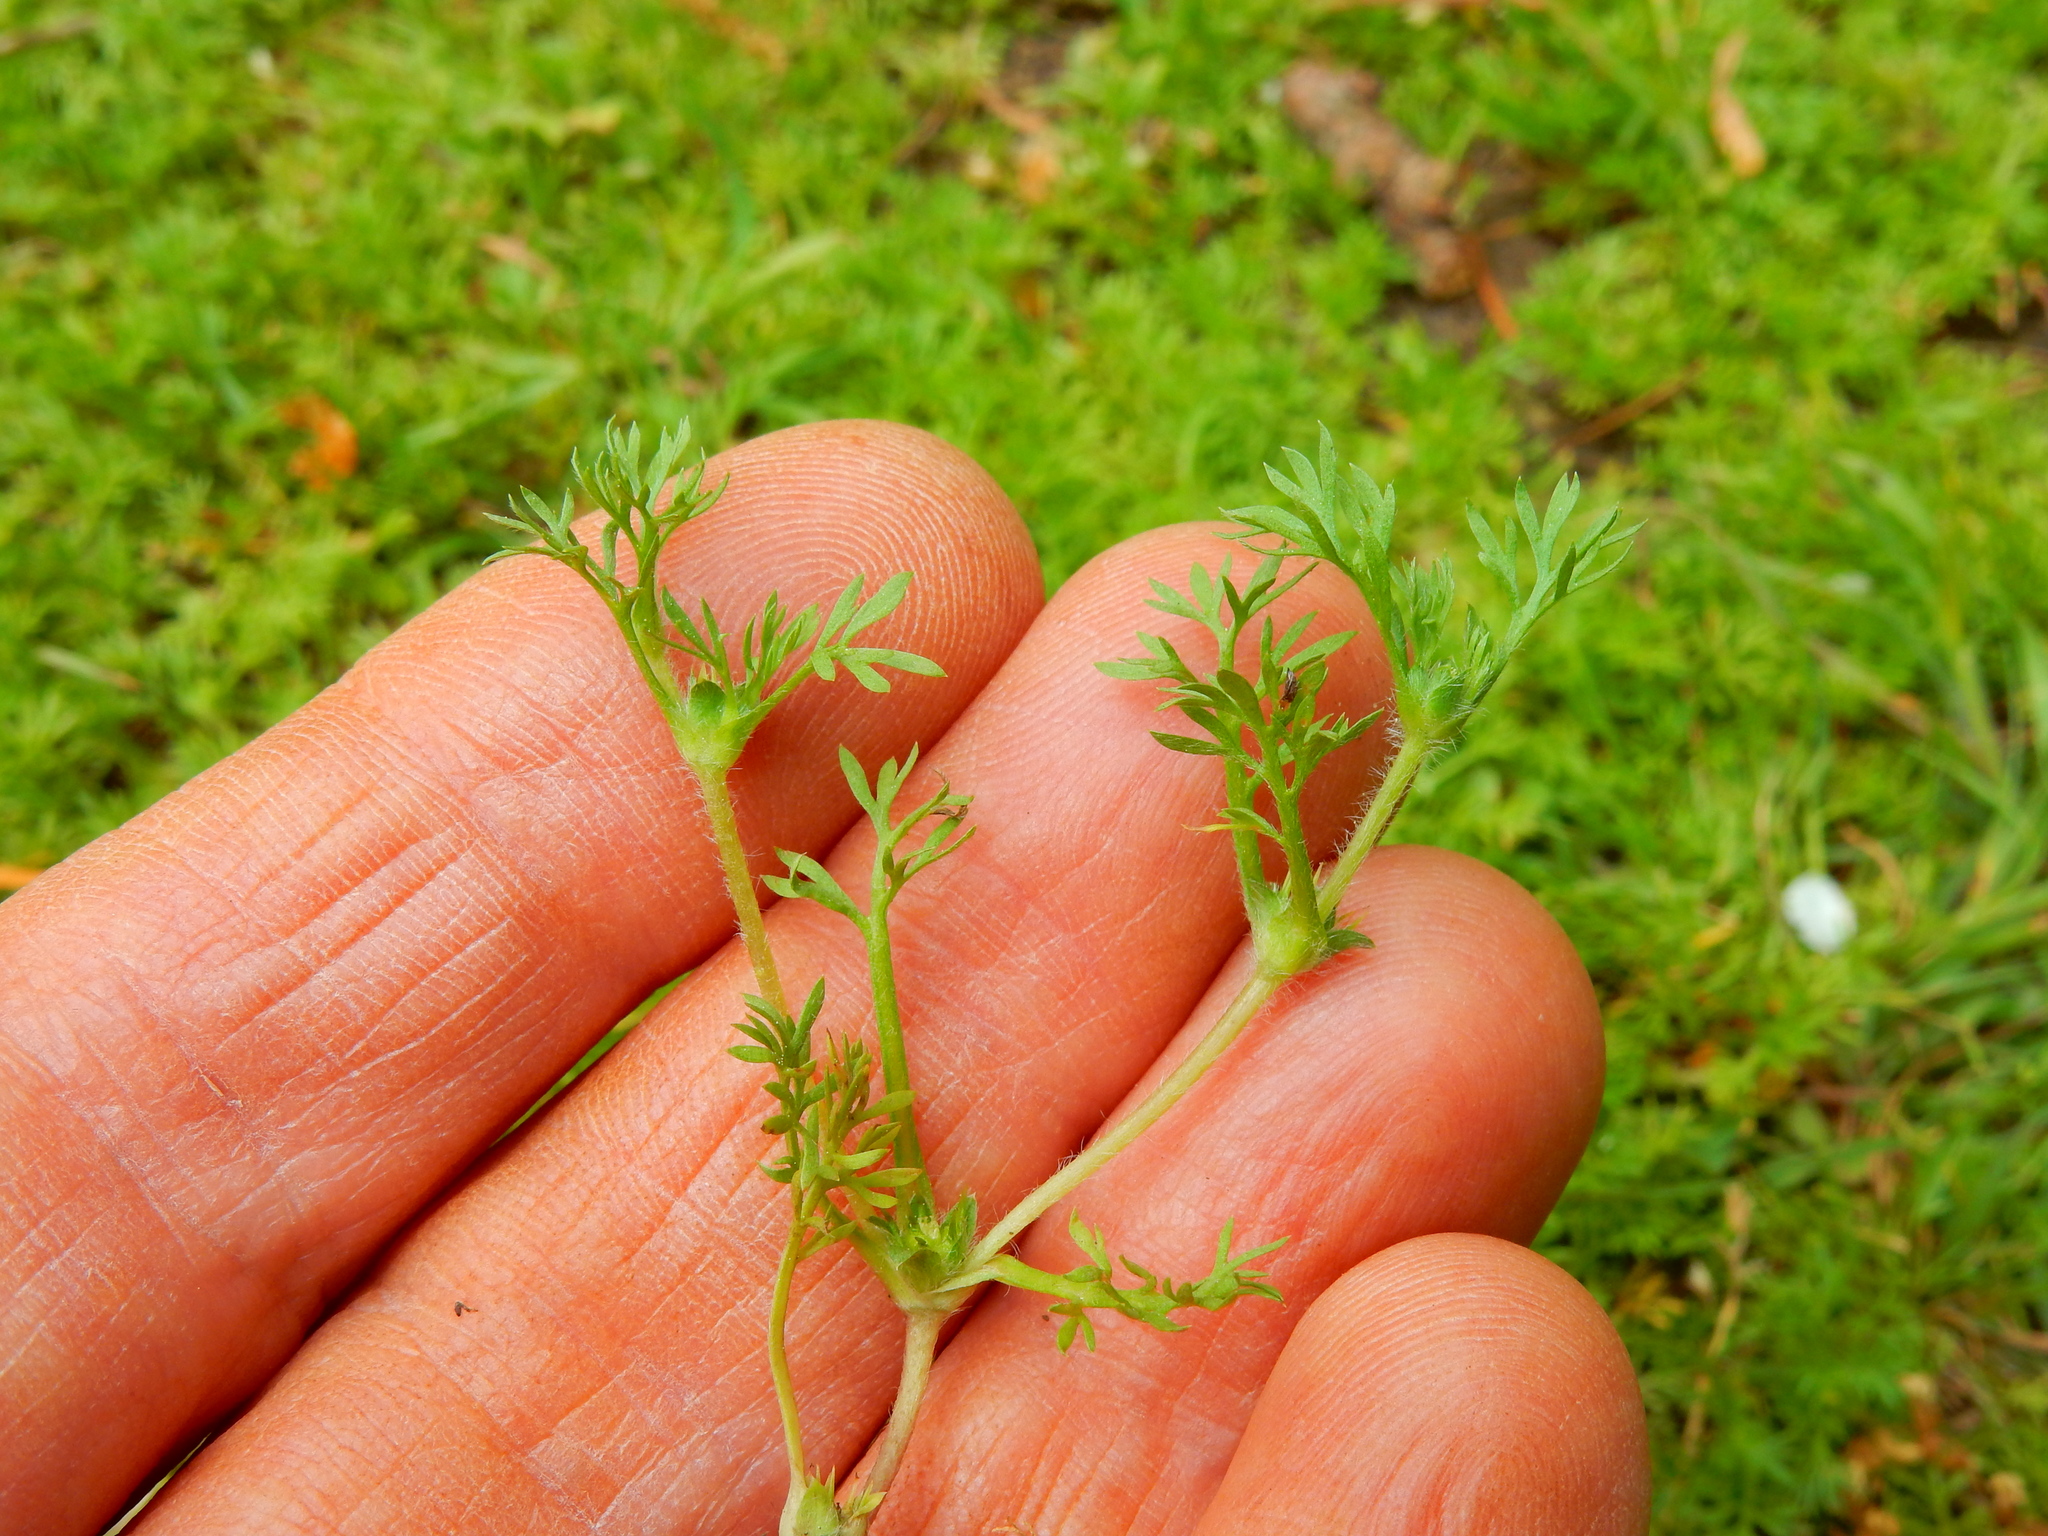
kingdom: Plantae
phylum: Tracheophyta
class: Magnoliopsida
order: Asterales
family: Asteraceae
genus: Soliva
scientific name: Soliva sessilis
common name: Field burrweed
